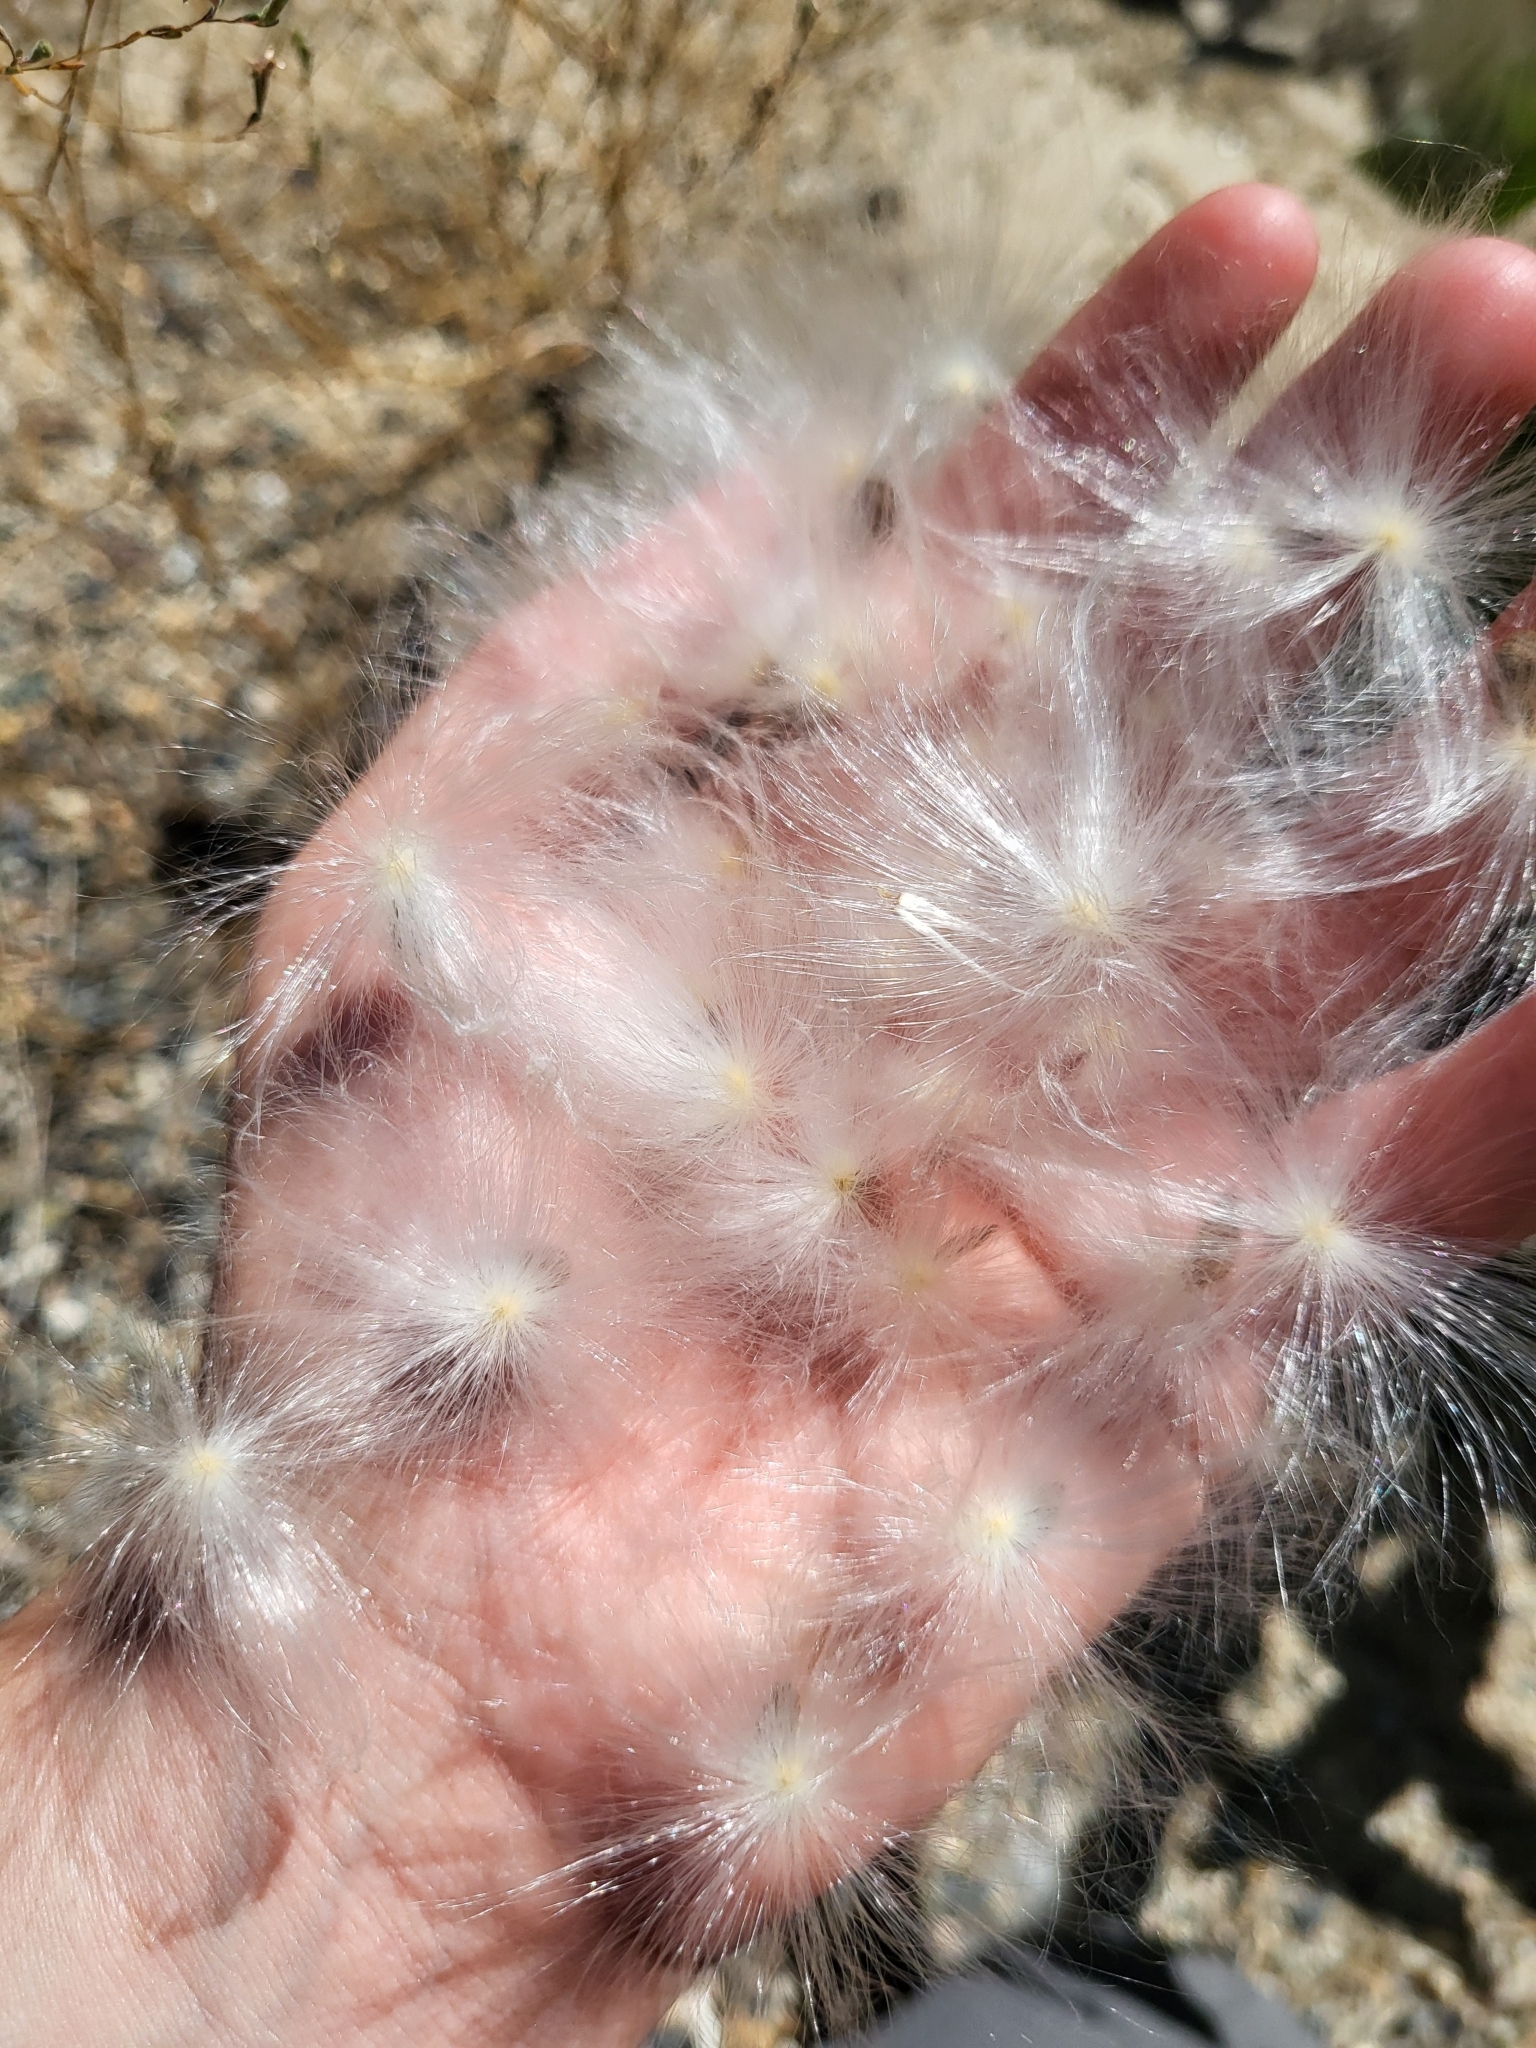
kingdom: Plantae
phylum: Tracheophyta
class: Magnoliopsida
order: Gentianales
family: Apocynaceae
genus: Asclepias
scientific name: Asclepias eriocarpa
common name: Indian milkweed
